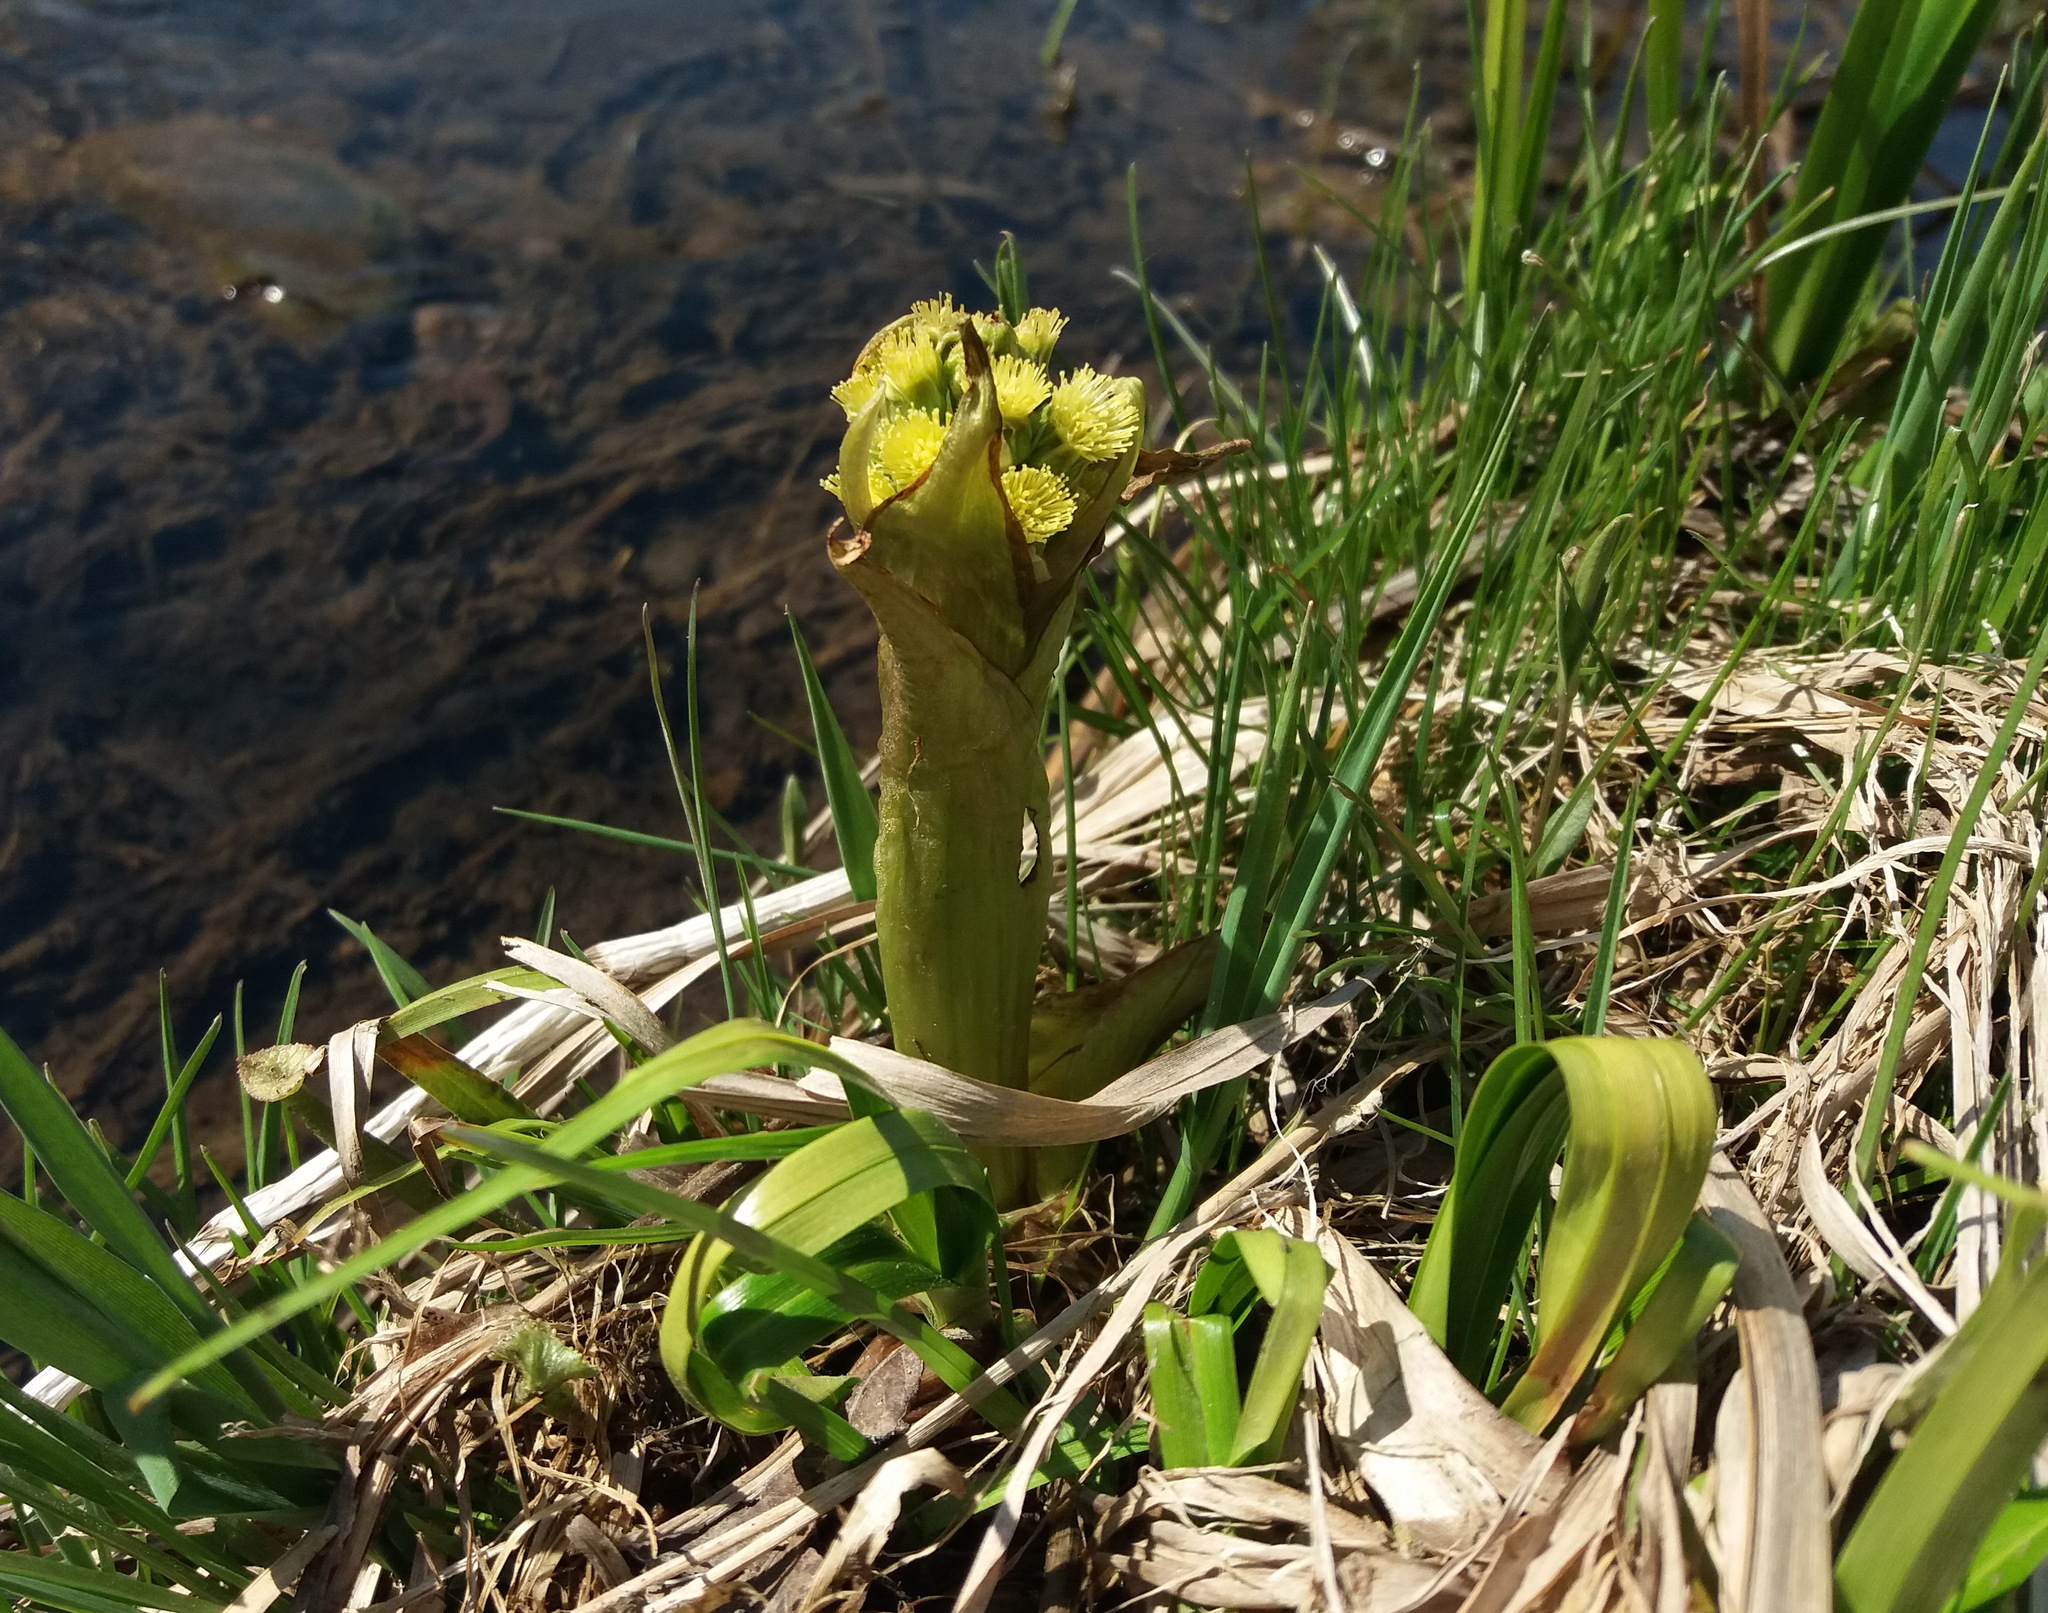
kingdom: Plantae
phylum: Tracheophyta
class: Magnoliopsida
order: Asterales
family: Asteraceae
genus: Petasites
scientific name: Petasites radiatus
